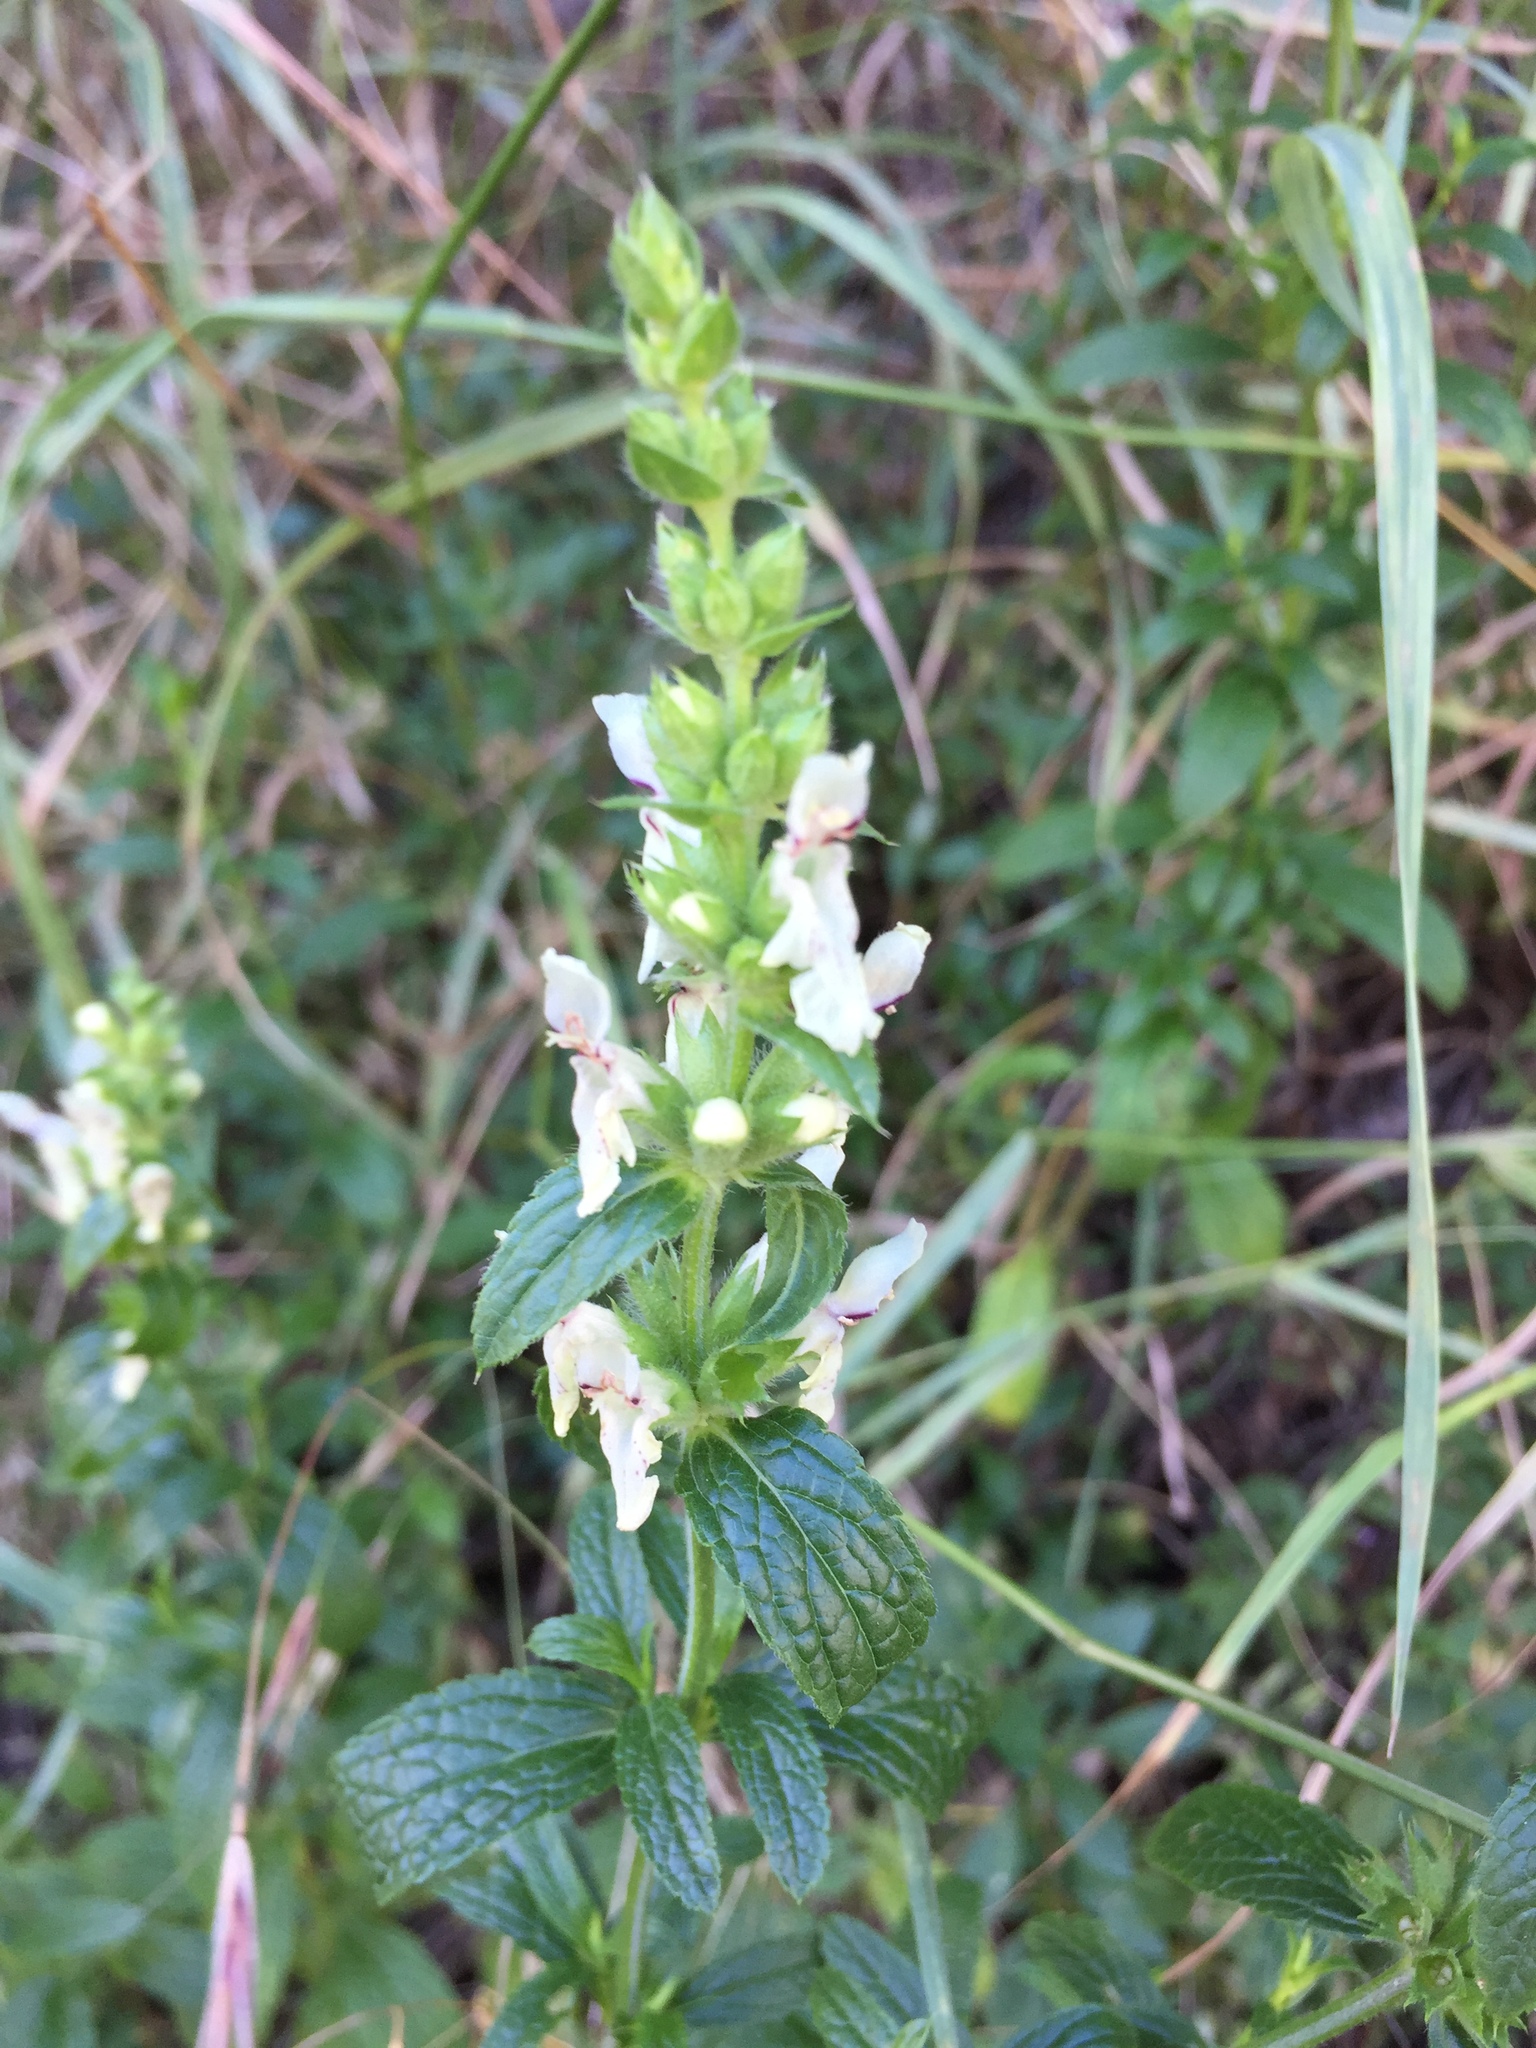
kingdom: Plantae
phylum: Tracheophyta
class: Magnoliopsida
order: Lamiales
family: Lamiaceae
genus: Stachys
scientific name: Stachys recta
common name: Perennial yellow-woundwort
